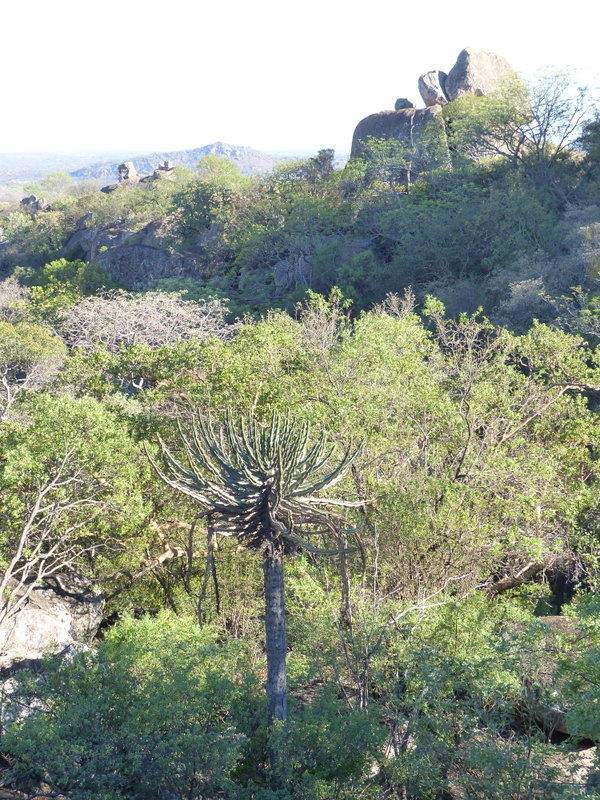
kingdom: Plantae
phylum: Tracheophyta
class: Magnoliopsida
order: Malpighiales
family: Euphorbiaceae
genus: Euphorbia
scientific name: Euphorbia confinalis
